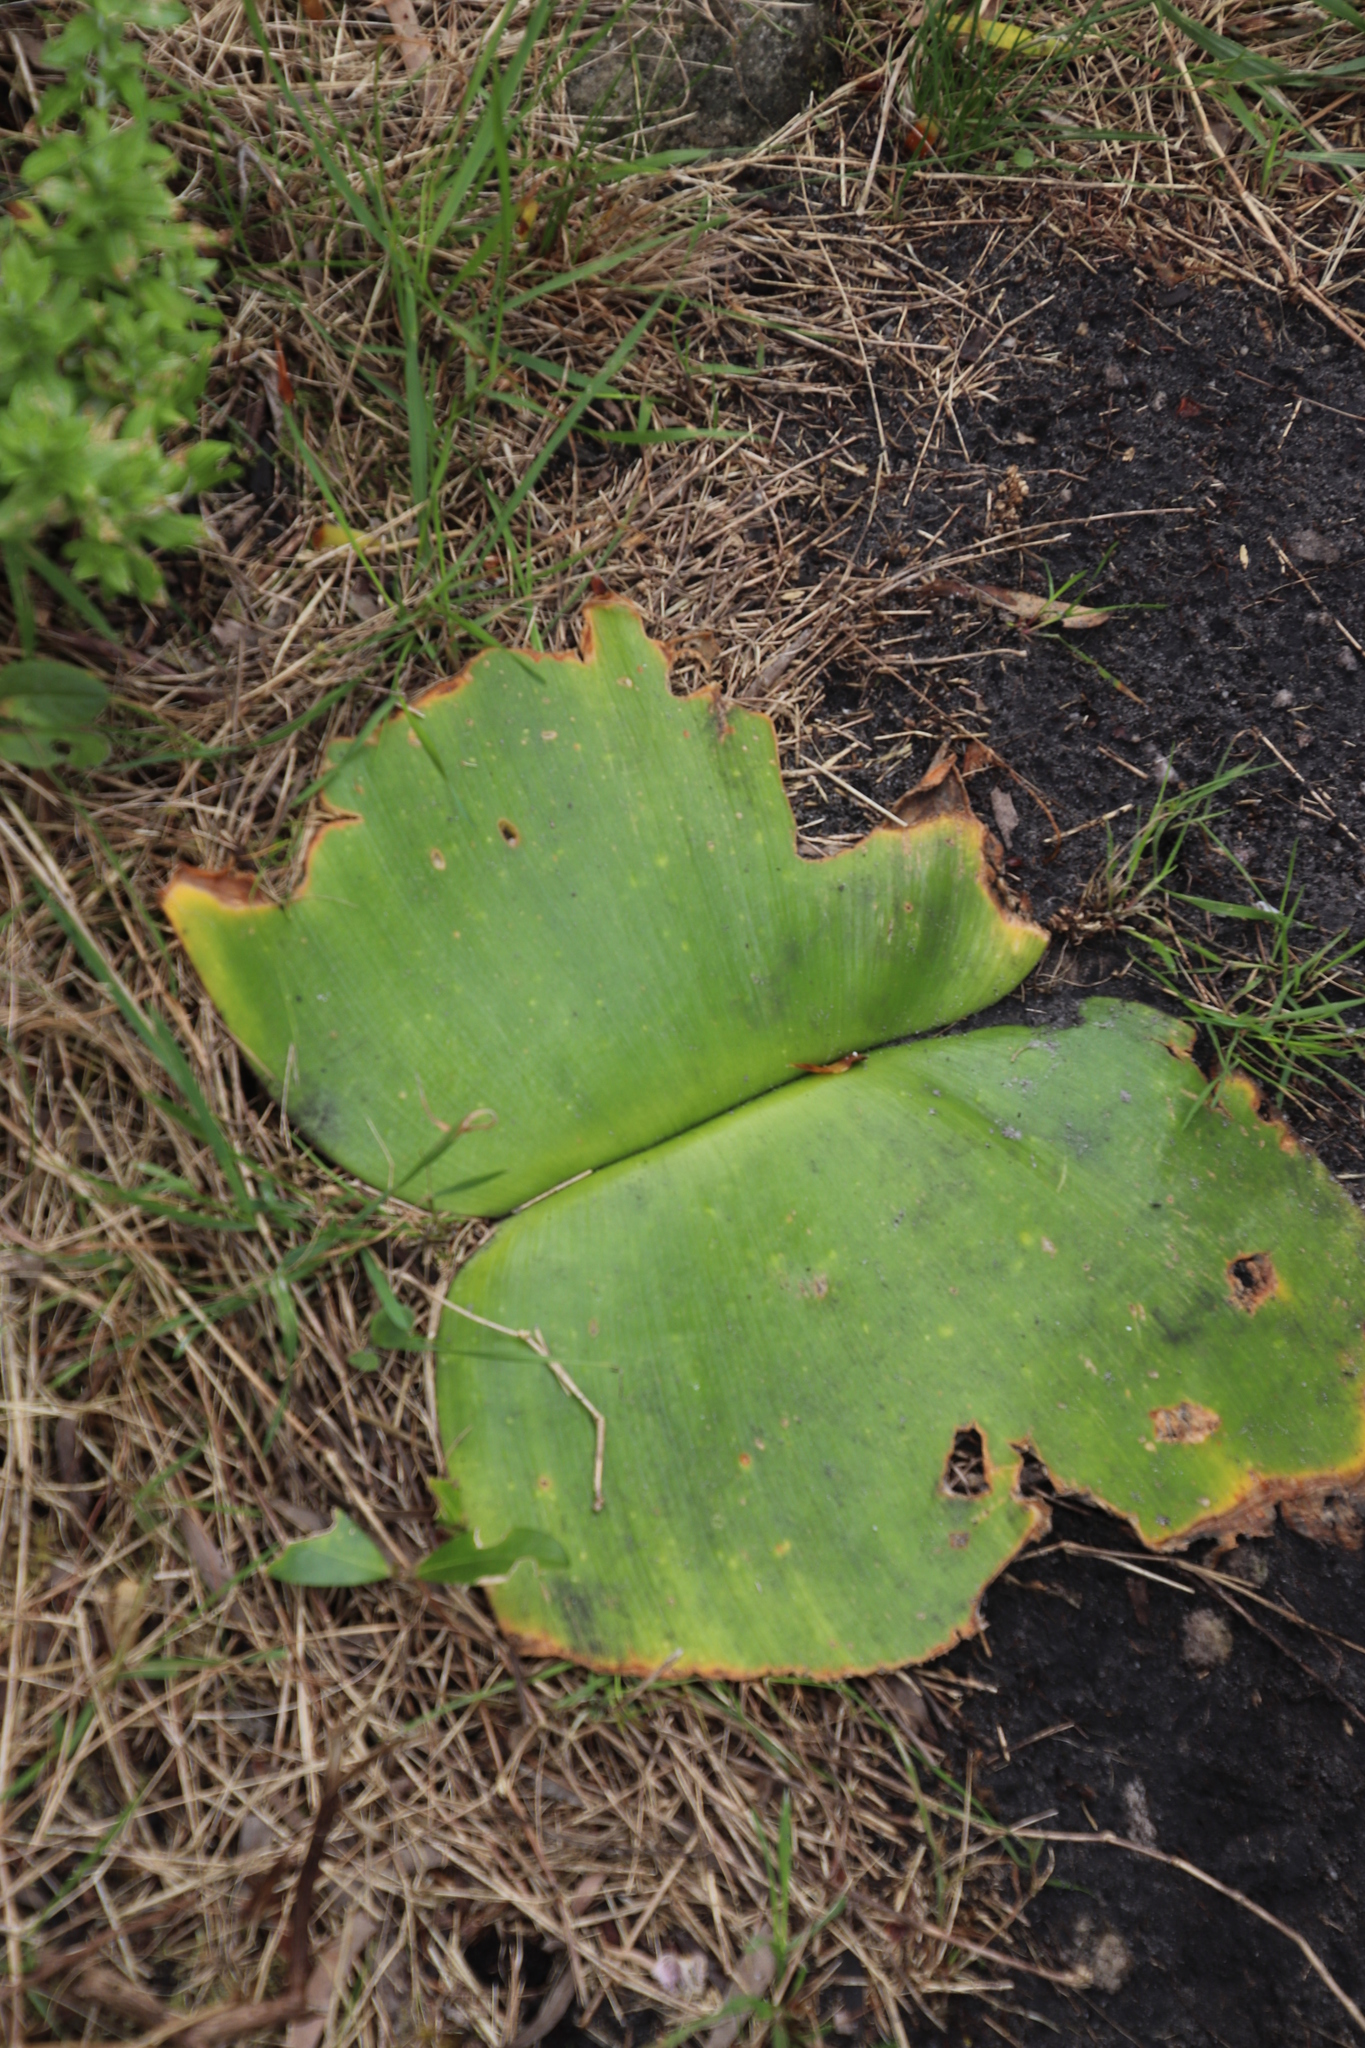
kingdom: Plantae
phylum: Tracheophyta
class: Liliopsida
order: Asparagales
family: Amaryllidaceae
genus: Haemanthus
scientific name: Haemanthus sanguineus
